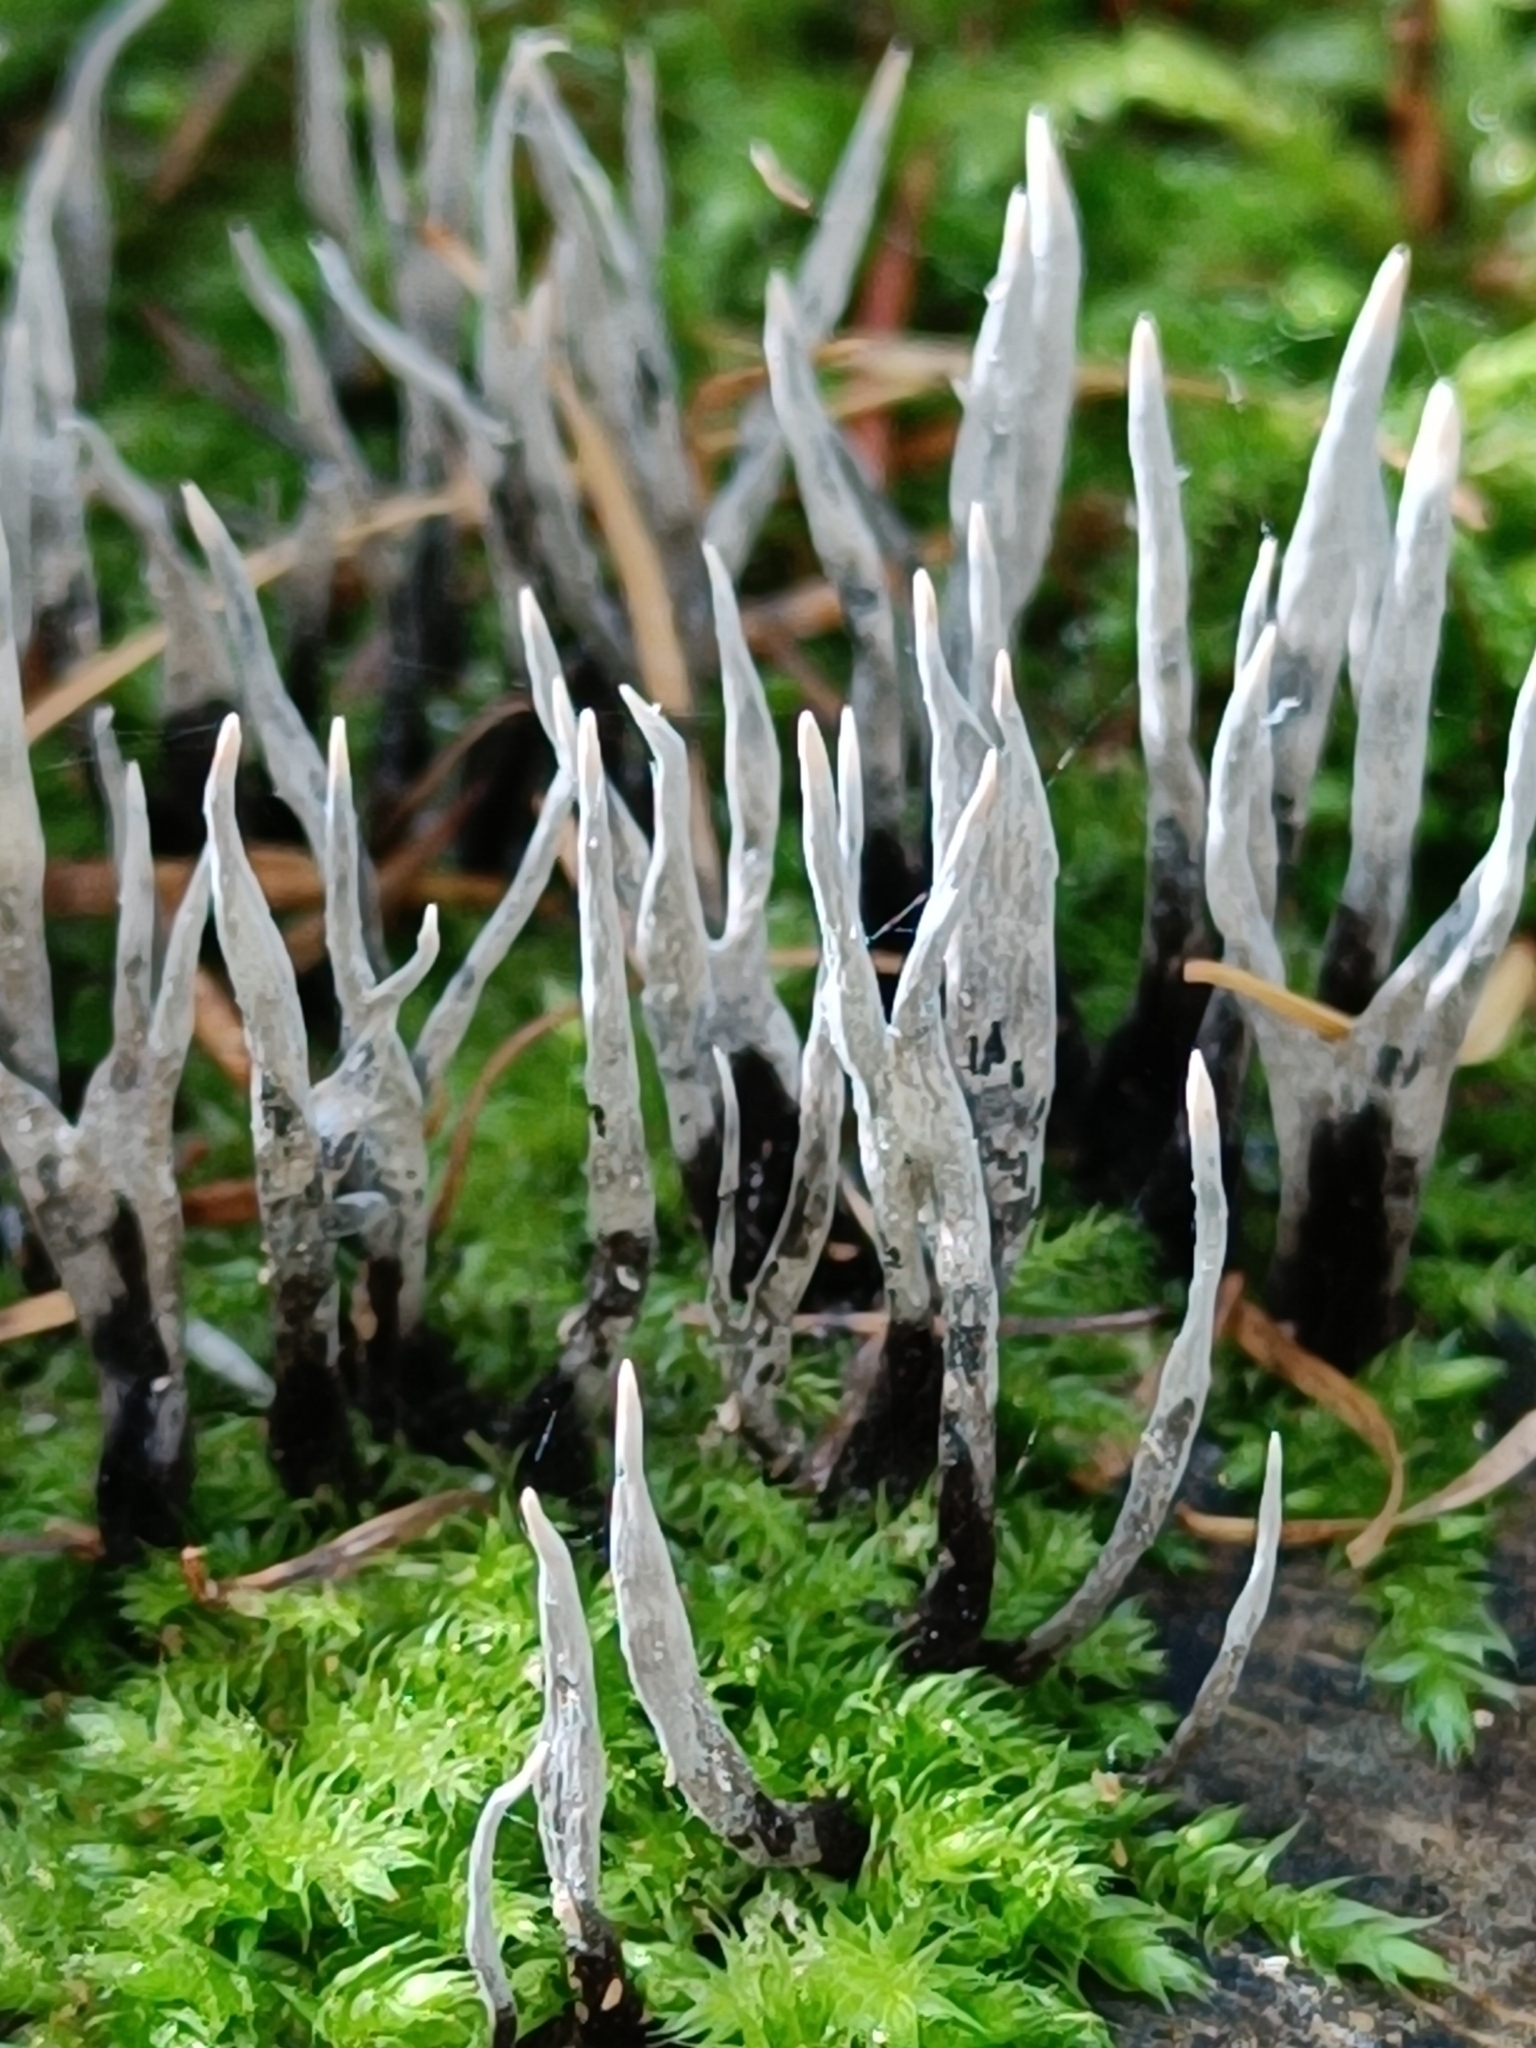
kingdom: Fungi
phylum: Ascomycota
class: Sordariomycetes
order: Xylariales
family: Xylariaceae
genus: Xylaria
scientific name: Xylaria hypoxylon
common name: Candle-snuff fungus
